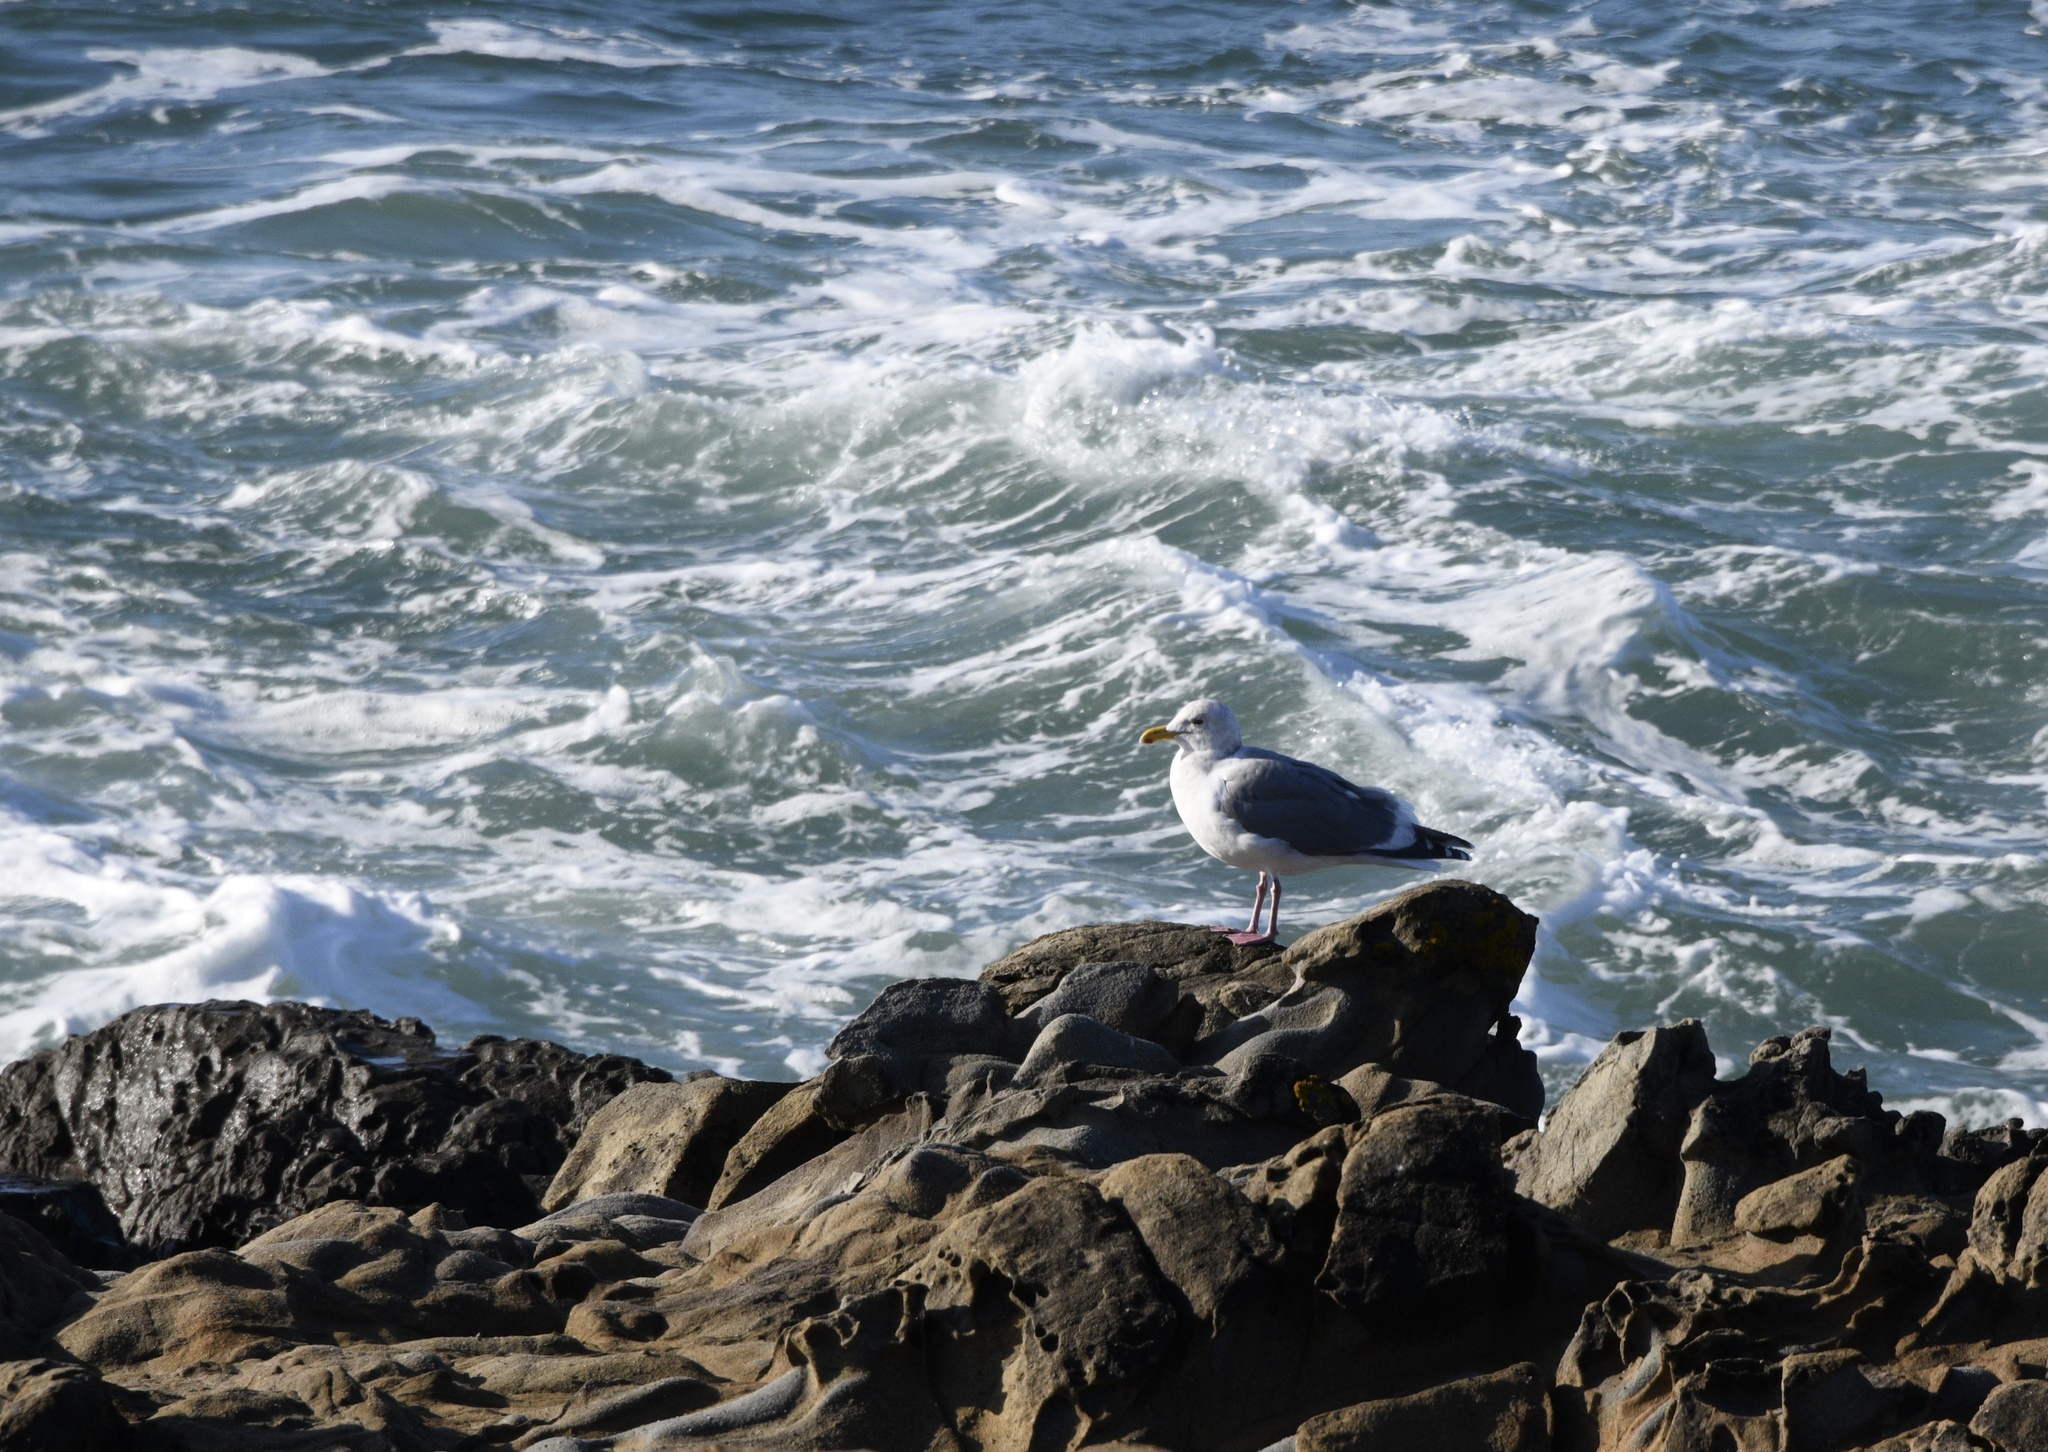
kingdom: Animalia
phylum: Chordata
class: Aves
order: Charadriiformes
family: Laridae
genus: Larus
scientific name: Larus occidentalis
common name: Western gull
